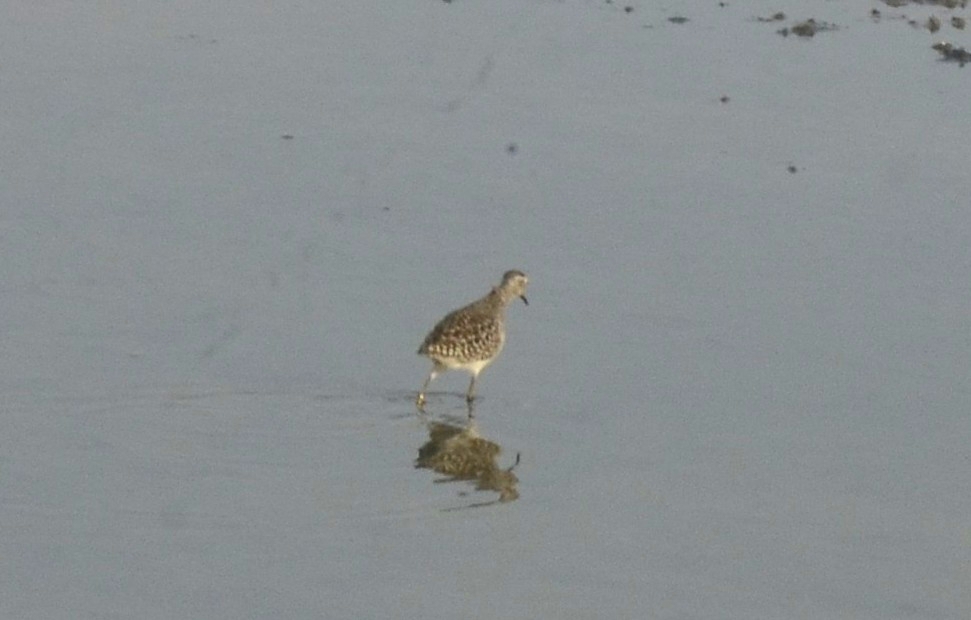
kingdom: Animalia
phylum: Chordata
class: Aves
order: Charadriiformes
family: Scolopacidae
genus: Tringa
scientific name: Tringa glareola
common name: Wood sandpiper
